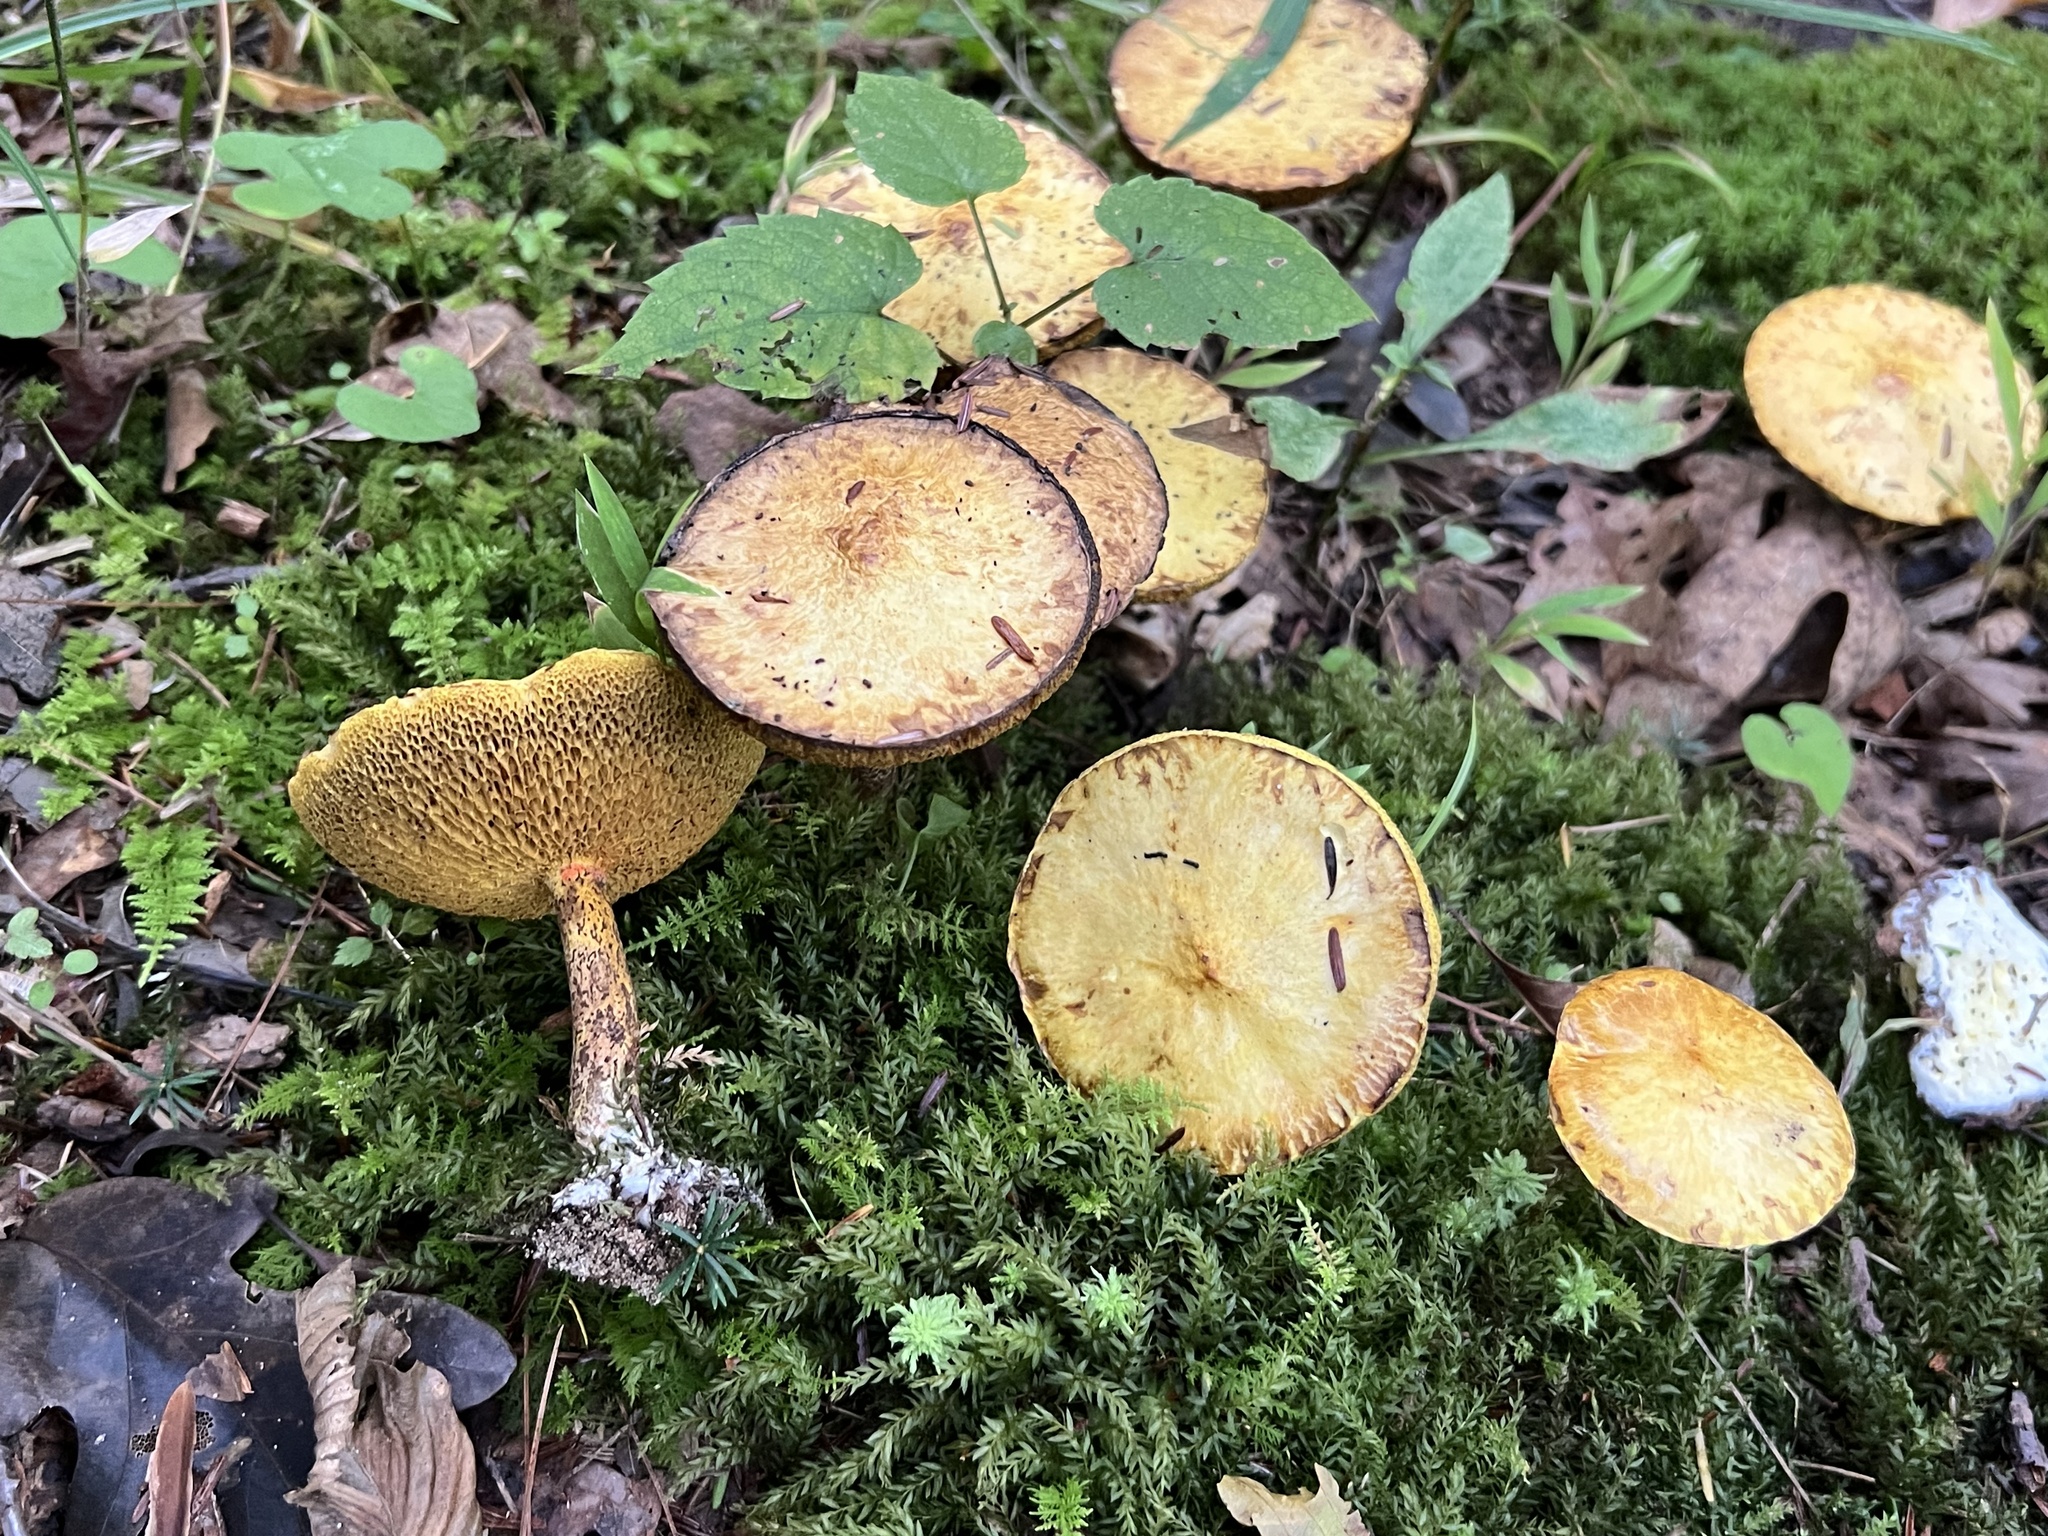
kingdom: Fungi
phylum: Basidiomycota
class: Agaricomycetes
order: Boletales
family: Suillaceae
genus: Suillus
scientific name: Suillus americanus
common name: Chicken fat mushroom
